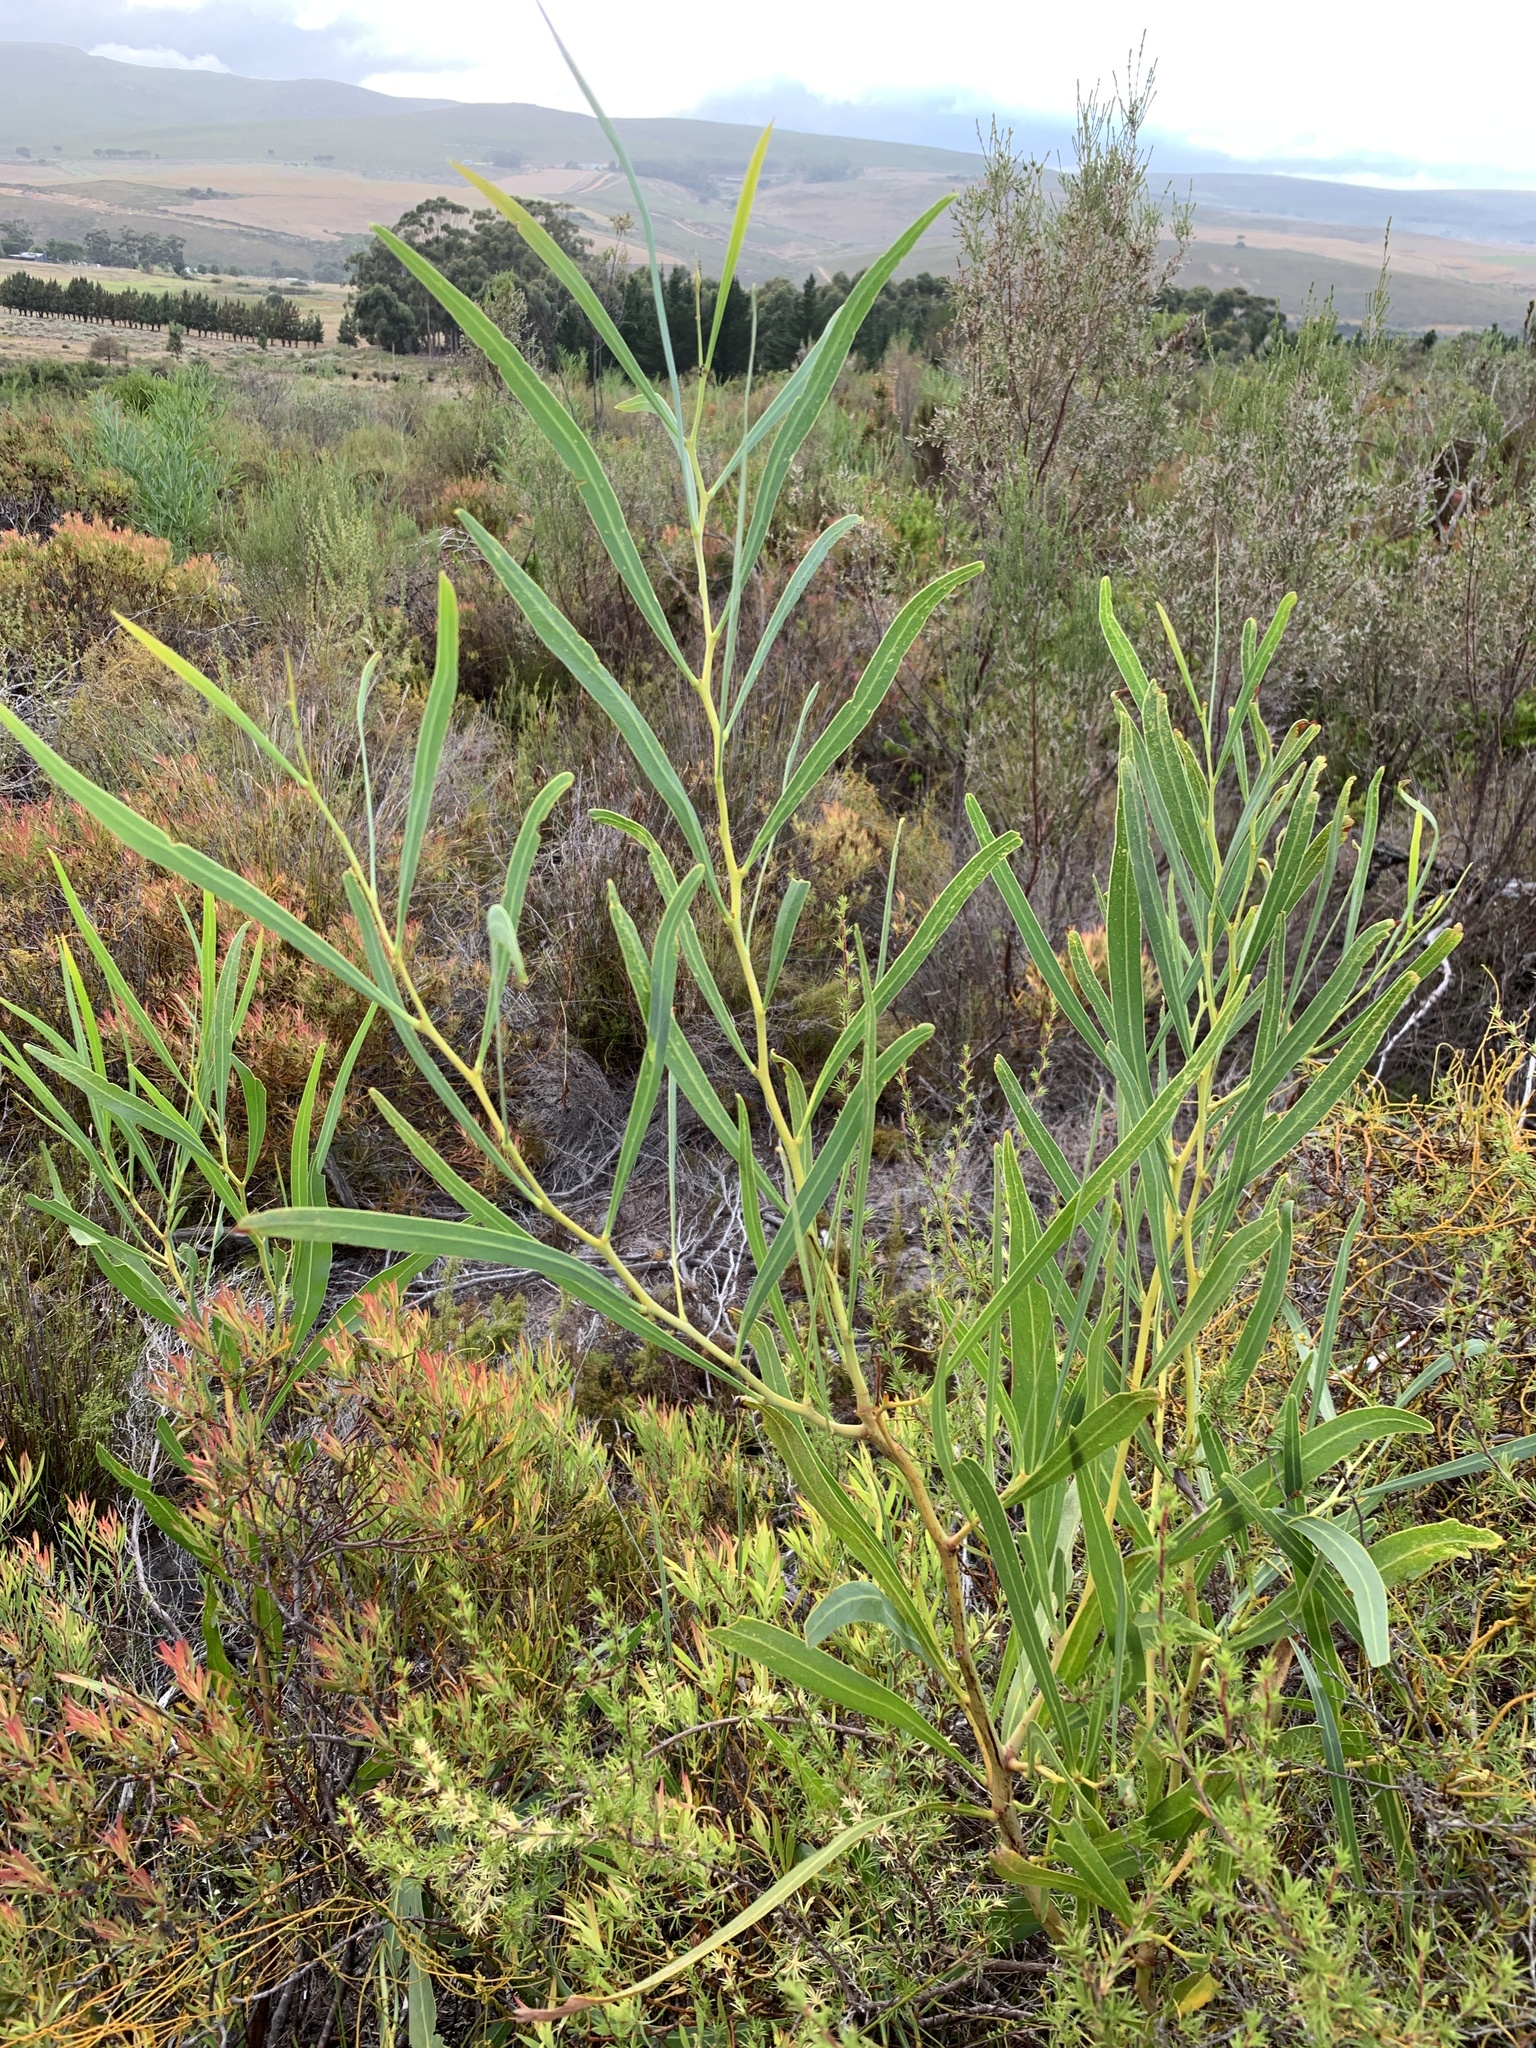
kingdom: Plantae
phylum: Tracheophyta
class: Magnoliopsida
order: Fabales
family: Fabaceae
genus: Acacia
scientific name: Acacia saligna
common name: Orange wattle
